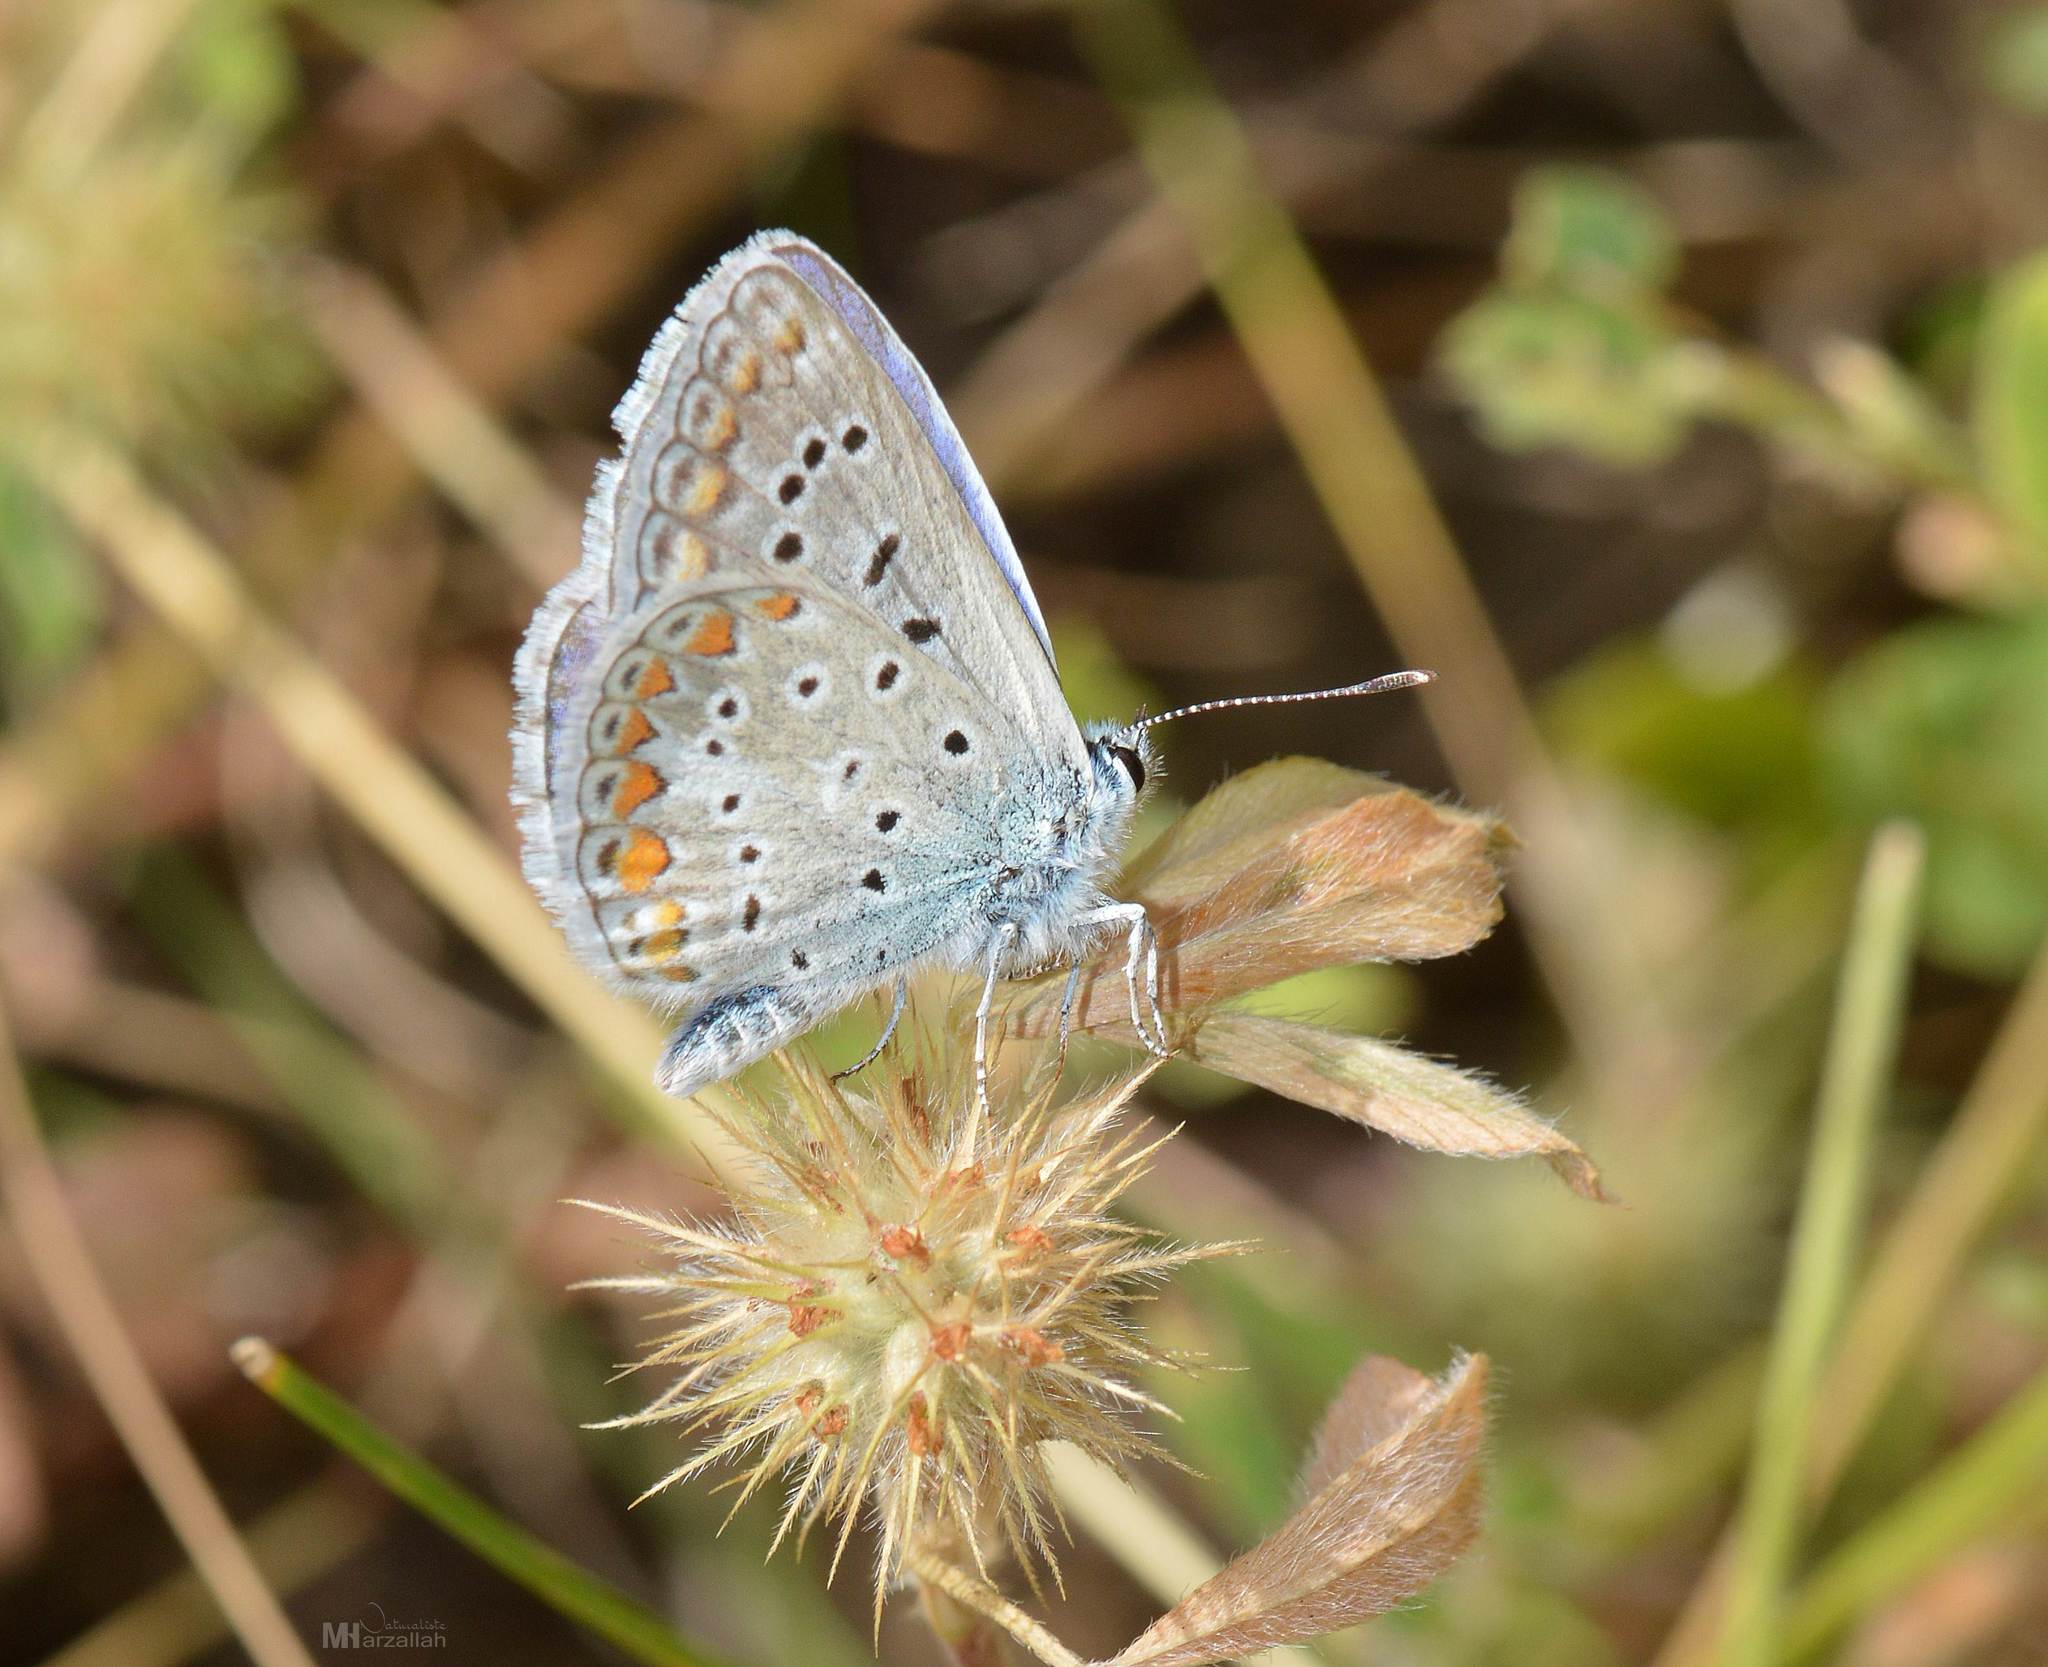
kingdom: Animalia
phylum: Arthropoda
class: Insecta
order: Lepidoptera
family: Lycaenidae
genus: Polyommatus
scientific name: Polyommatus celina
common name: Austaut's blue
